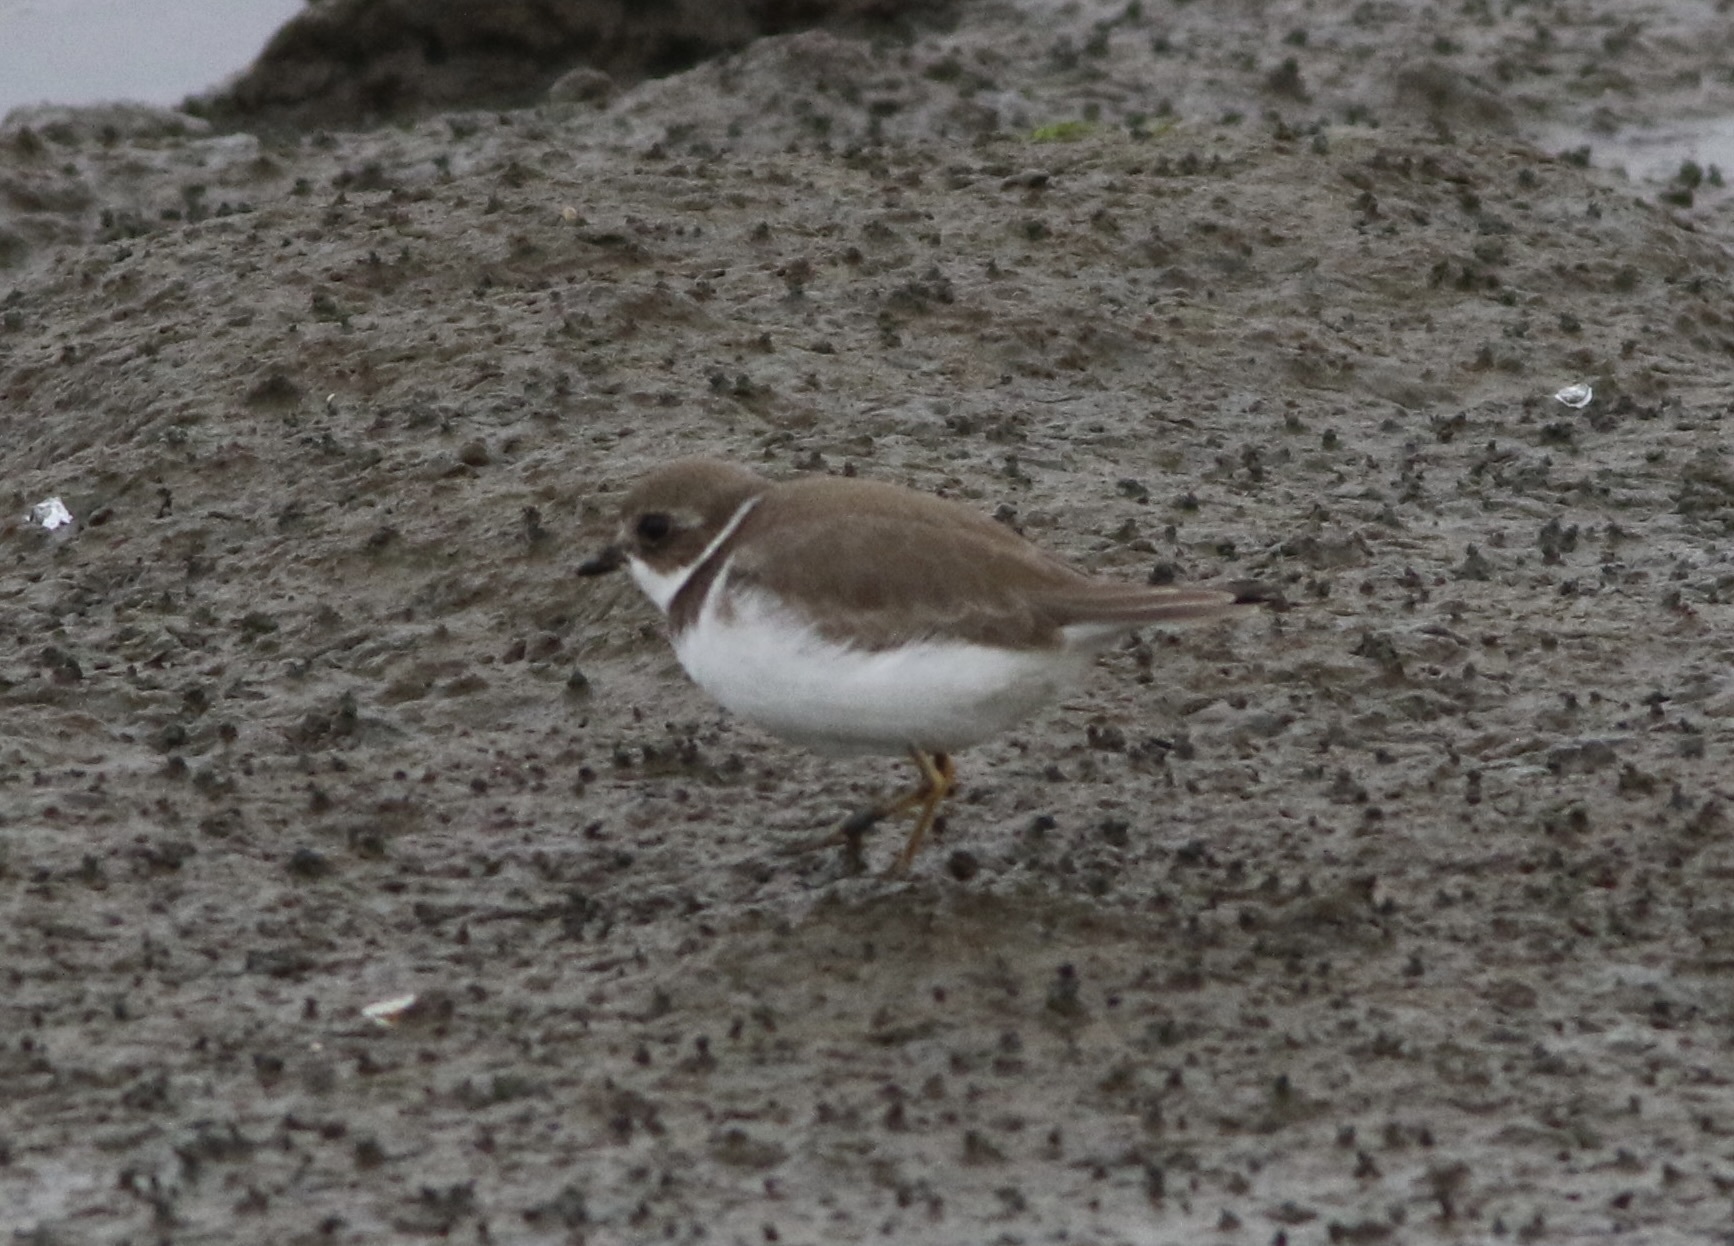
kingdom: Animalia
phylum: Chordata
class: Aves
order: Charadriiformes
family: Charadriidae
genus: Charadrius
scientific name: Charadrius semipalmatus
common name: Semipalmated plover
